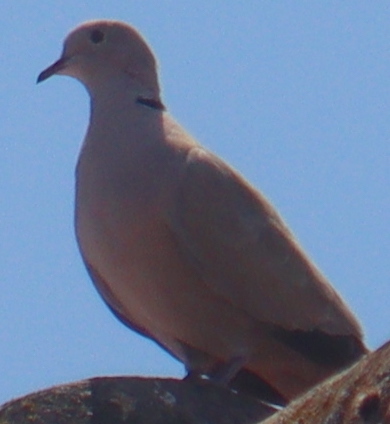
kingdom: Animalia
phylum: Chordata
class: Aves
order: Columbiformes
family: Columbidae
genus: Streptopelia
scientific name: Streptopelia decaocto
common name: Eurasian collared dove
